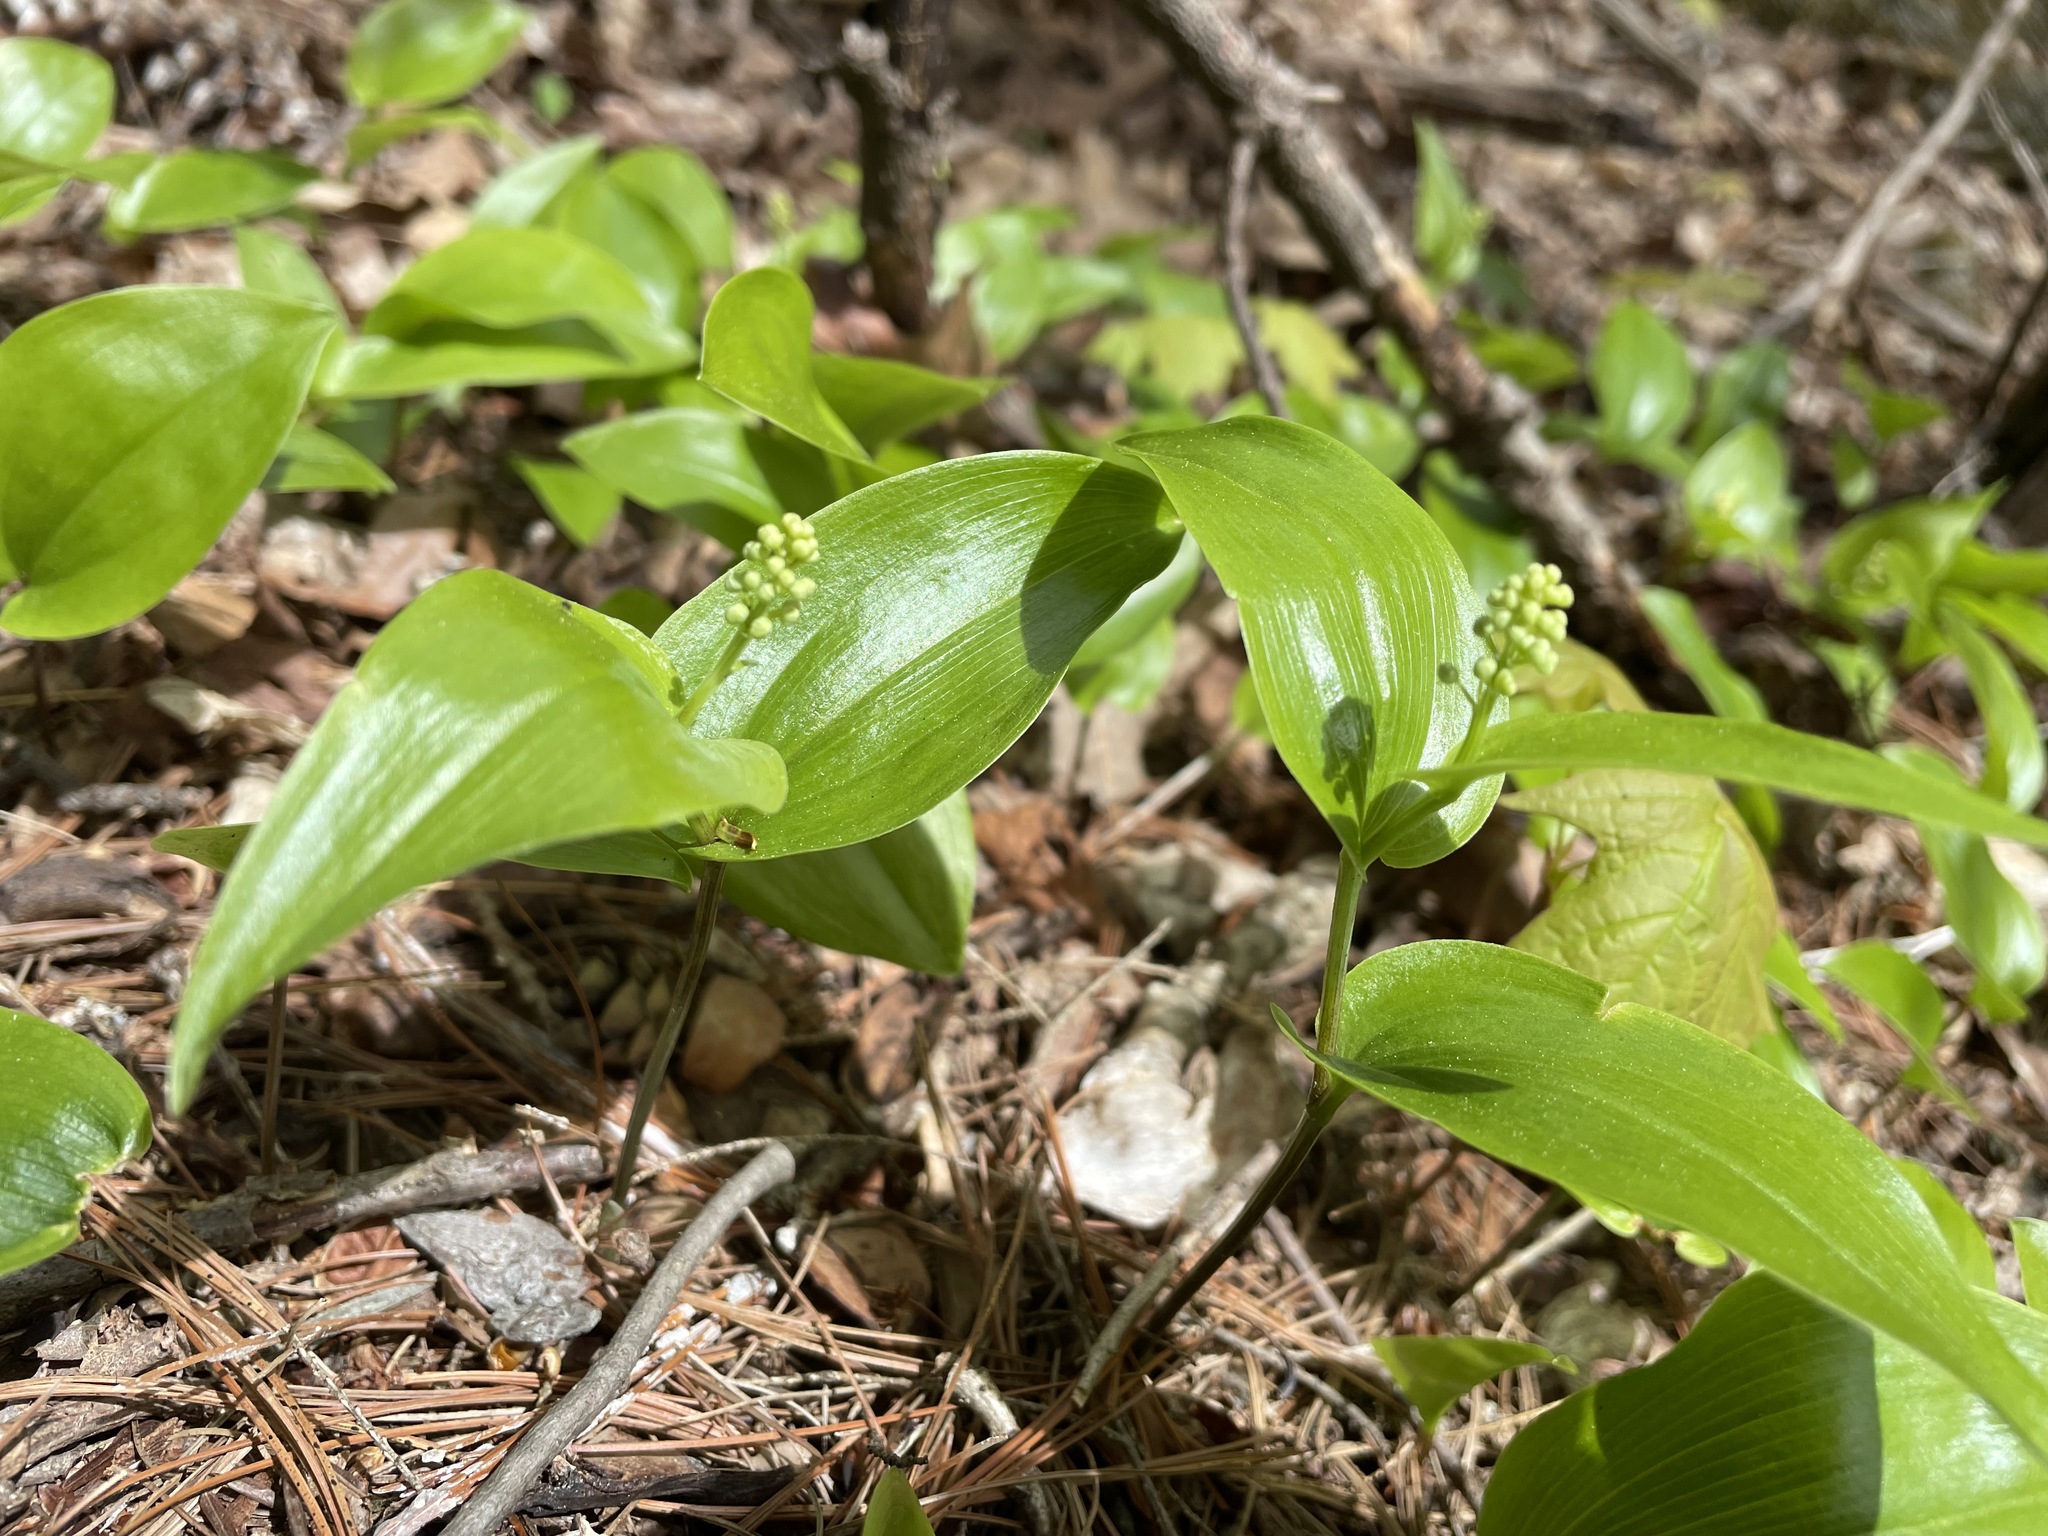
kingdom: Plantae
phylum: Tracheophyta
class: Liliopsida
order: Asparagales
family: Asparagaceae
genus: Maianthemum
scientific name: Maianthemum canadense
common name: False lily-of-the-valley
